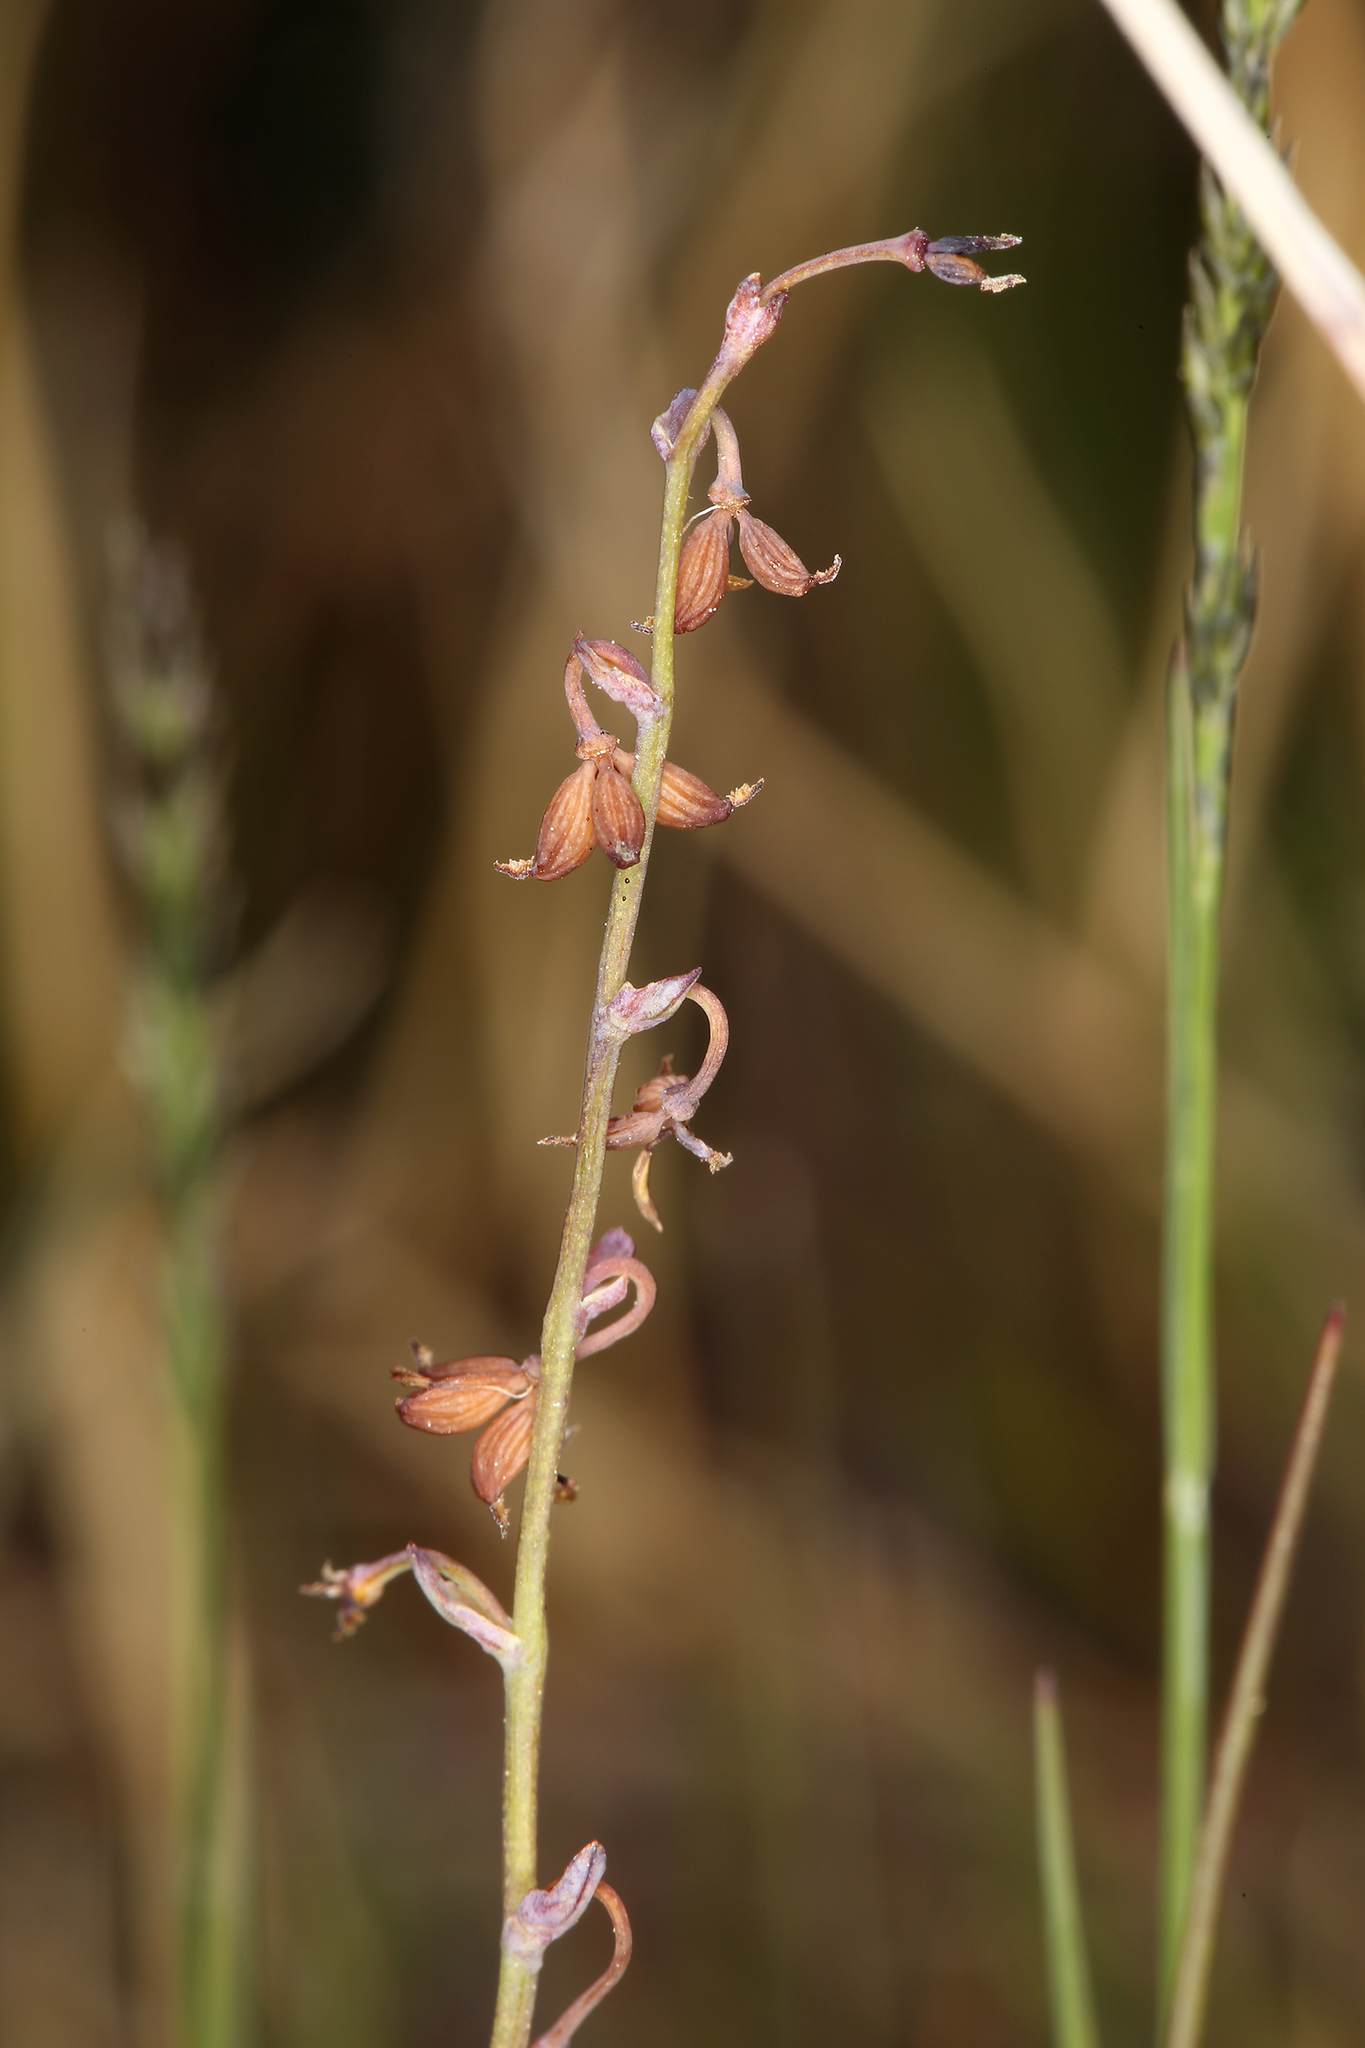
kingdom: Plantae
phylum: Tracheophyta
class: Magnoliopsida
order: Ranunculales
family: Ranunculaceae
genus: Thalictrum
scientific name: Thalictrum alpinum
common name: Alpine meadow-rue
